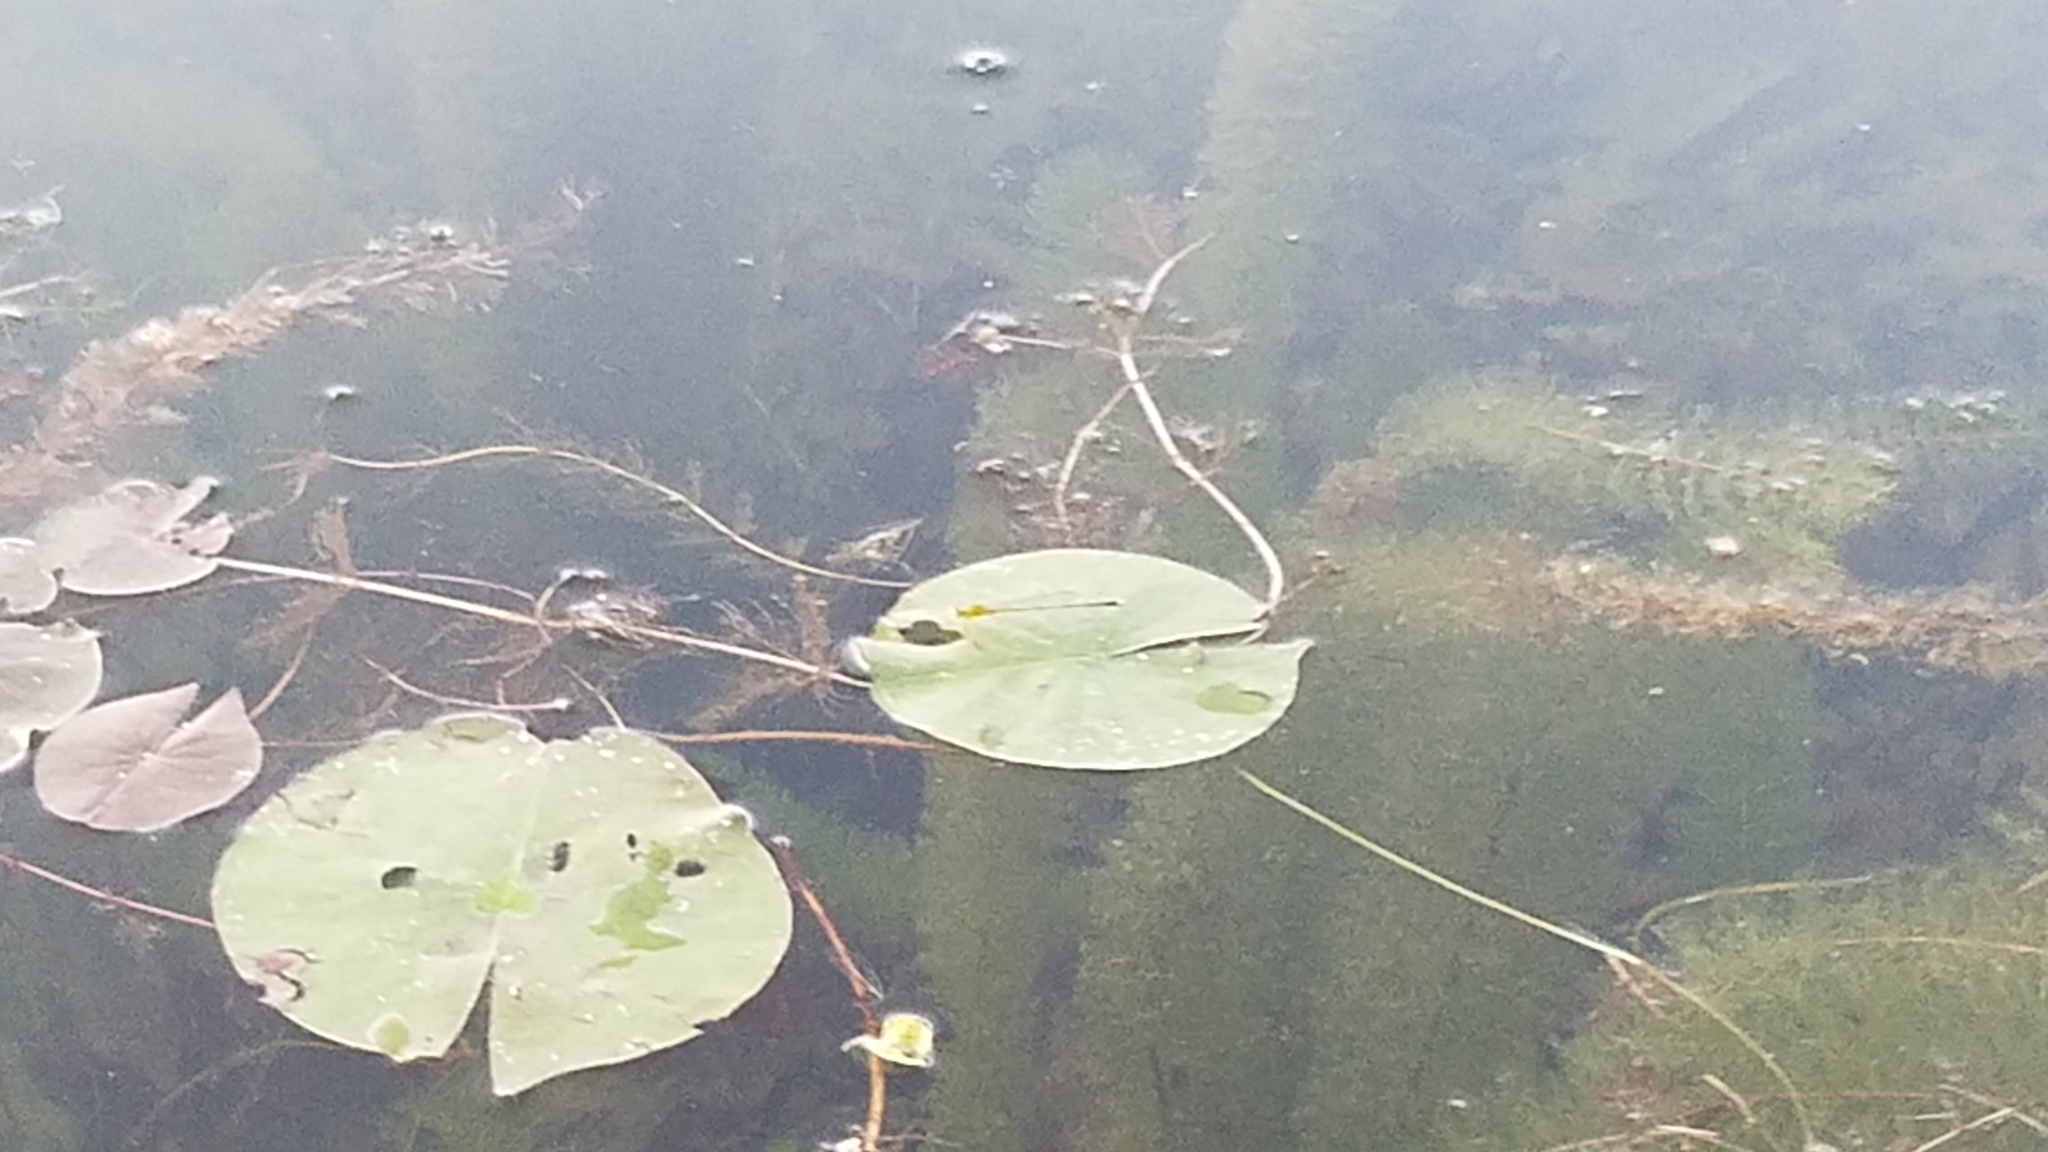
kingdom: Animalia
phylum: Arthropoda
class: Insecta
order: Odonata
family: Coenagrionidae
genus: Enallagma
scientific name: Enallagma vesperum
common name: Vesper bluet
